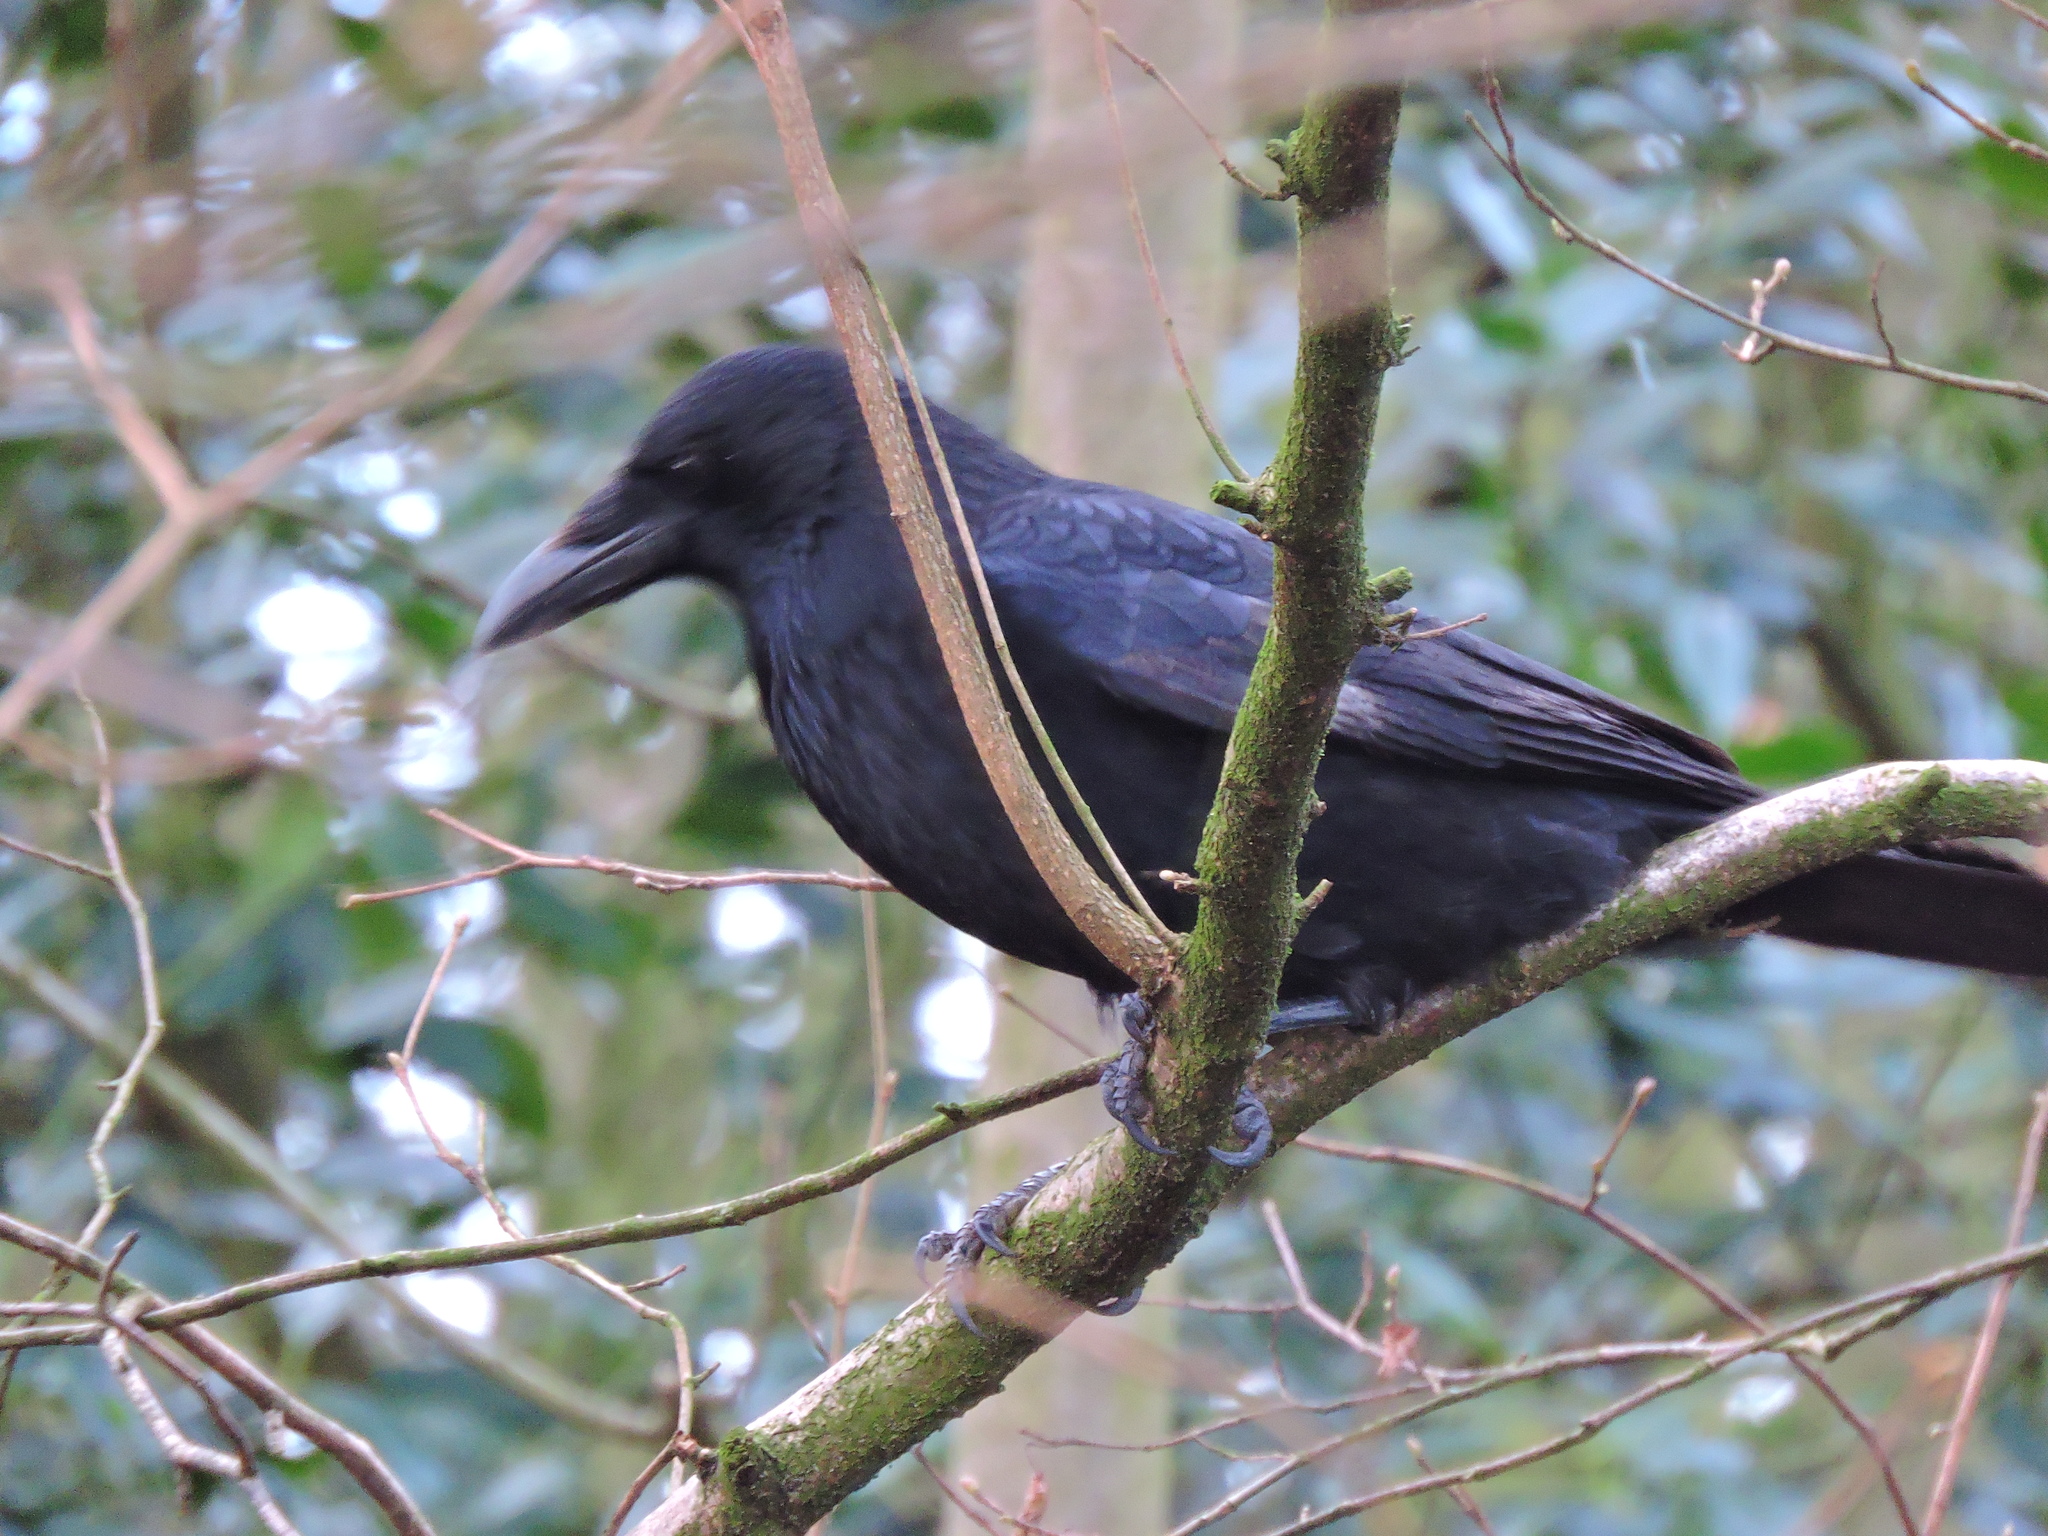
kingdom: Animalia
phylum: Chordata
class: Aves
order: Passeriformes
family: Corvidae
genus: Corvus
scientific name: Corvus corone
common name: Carrion crow
